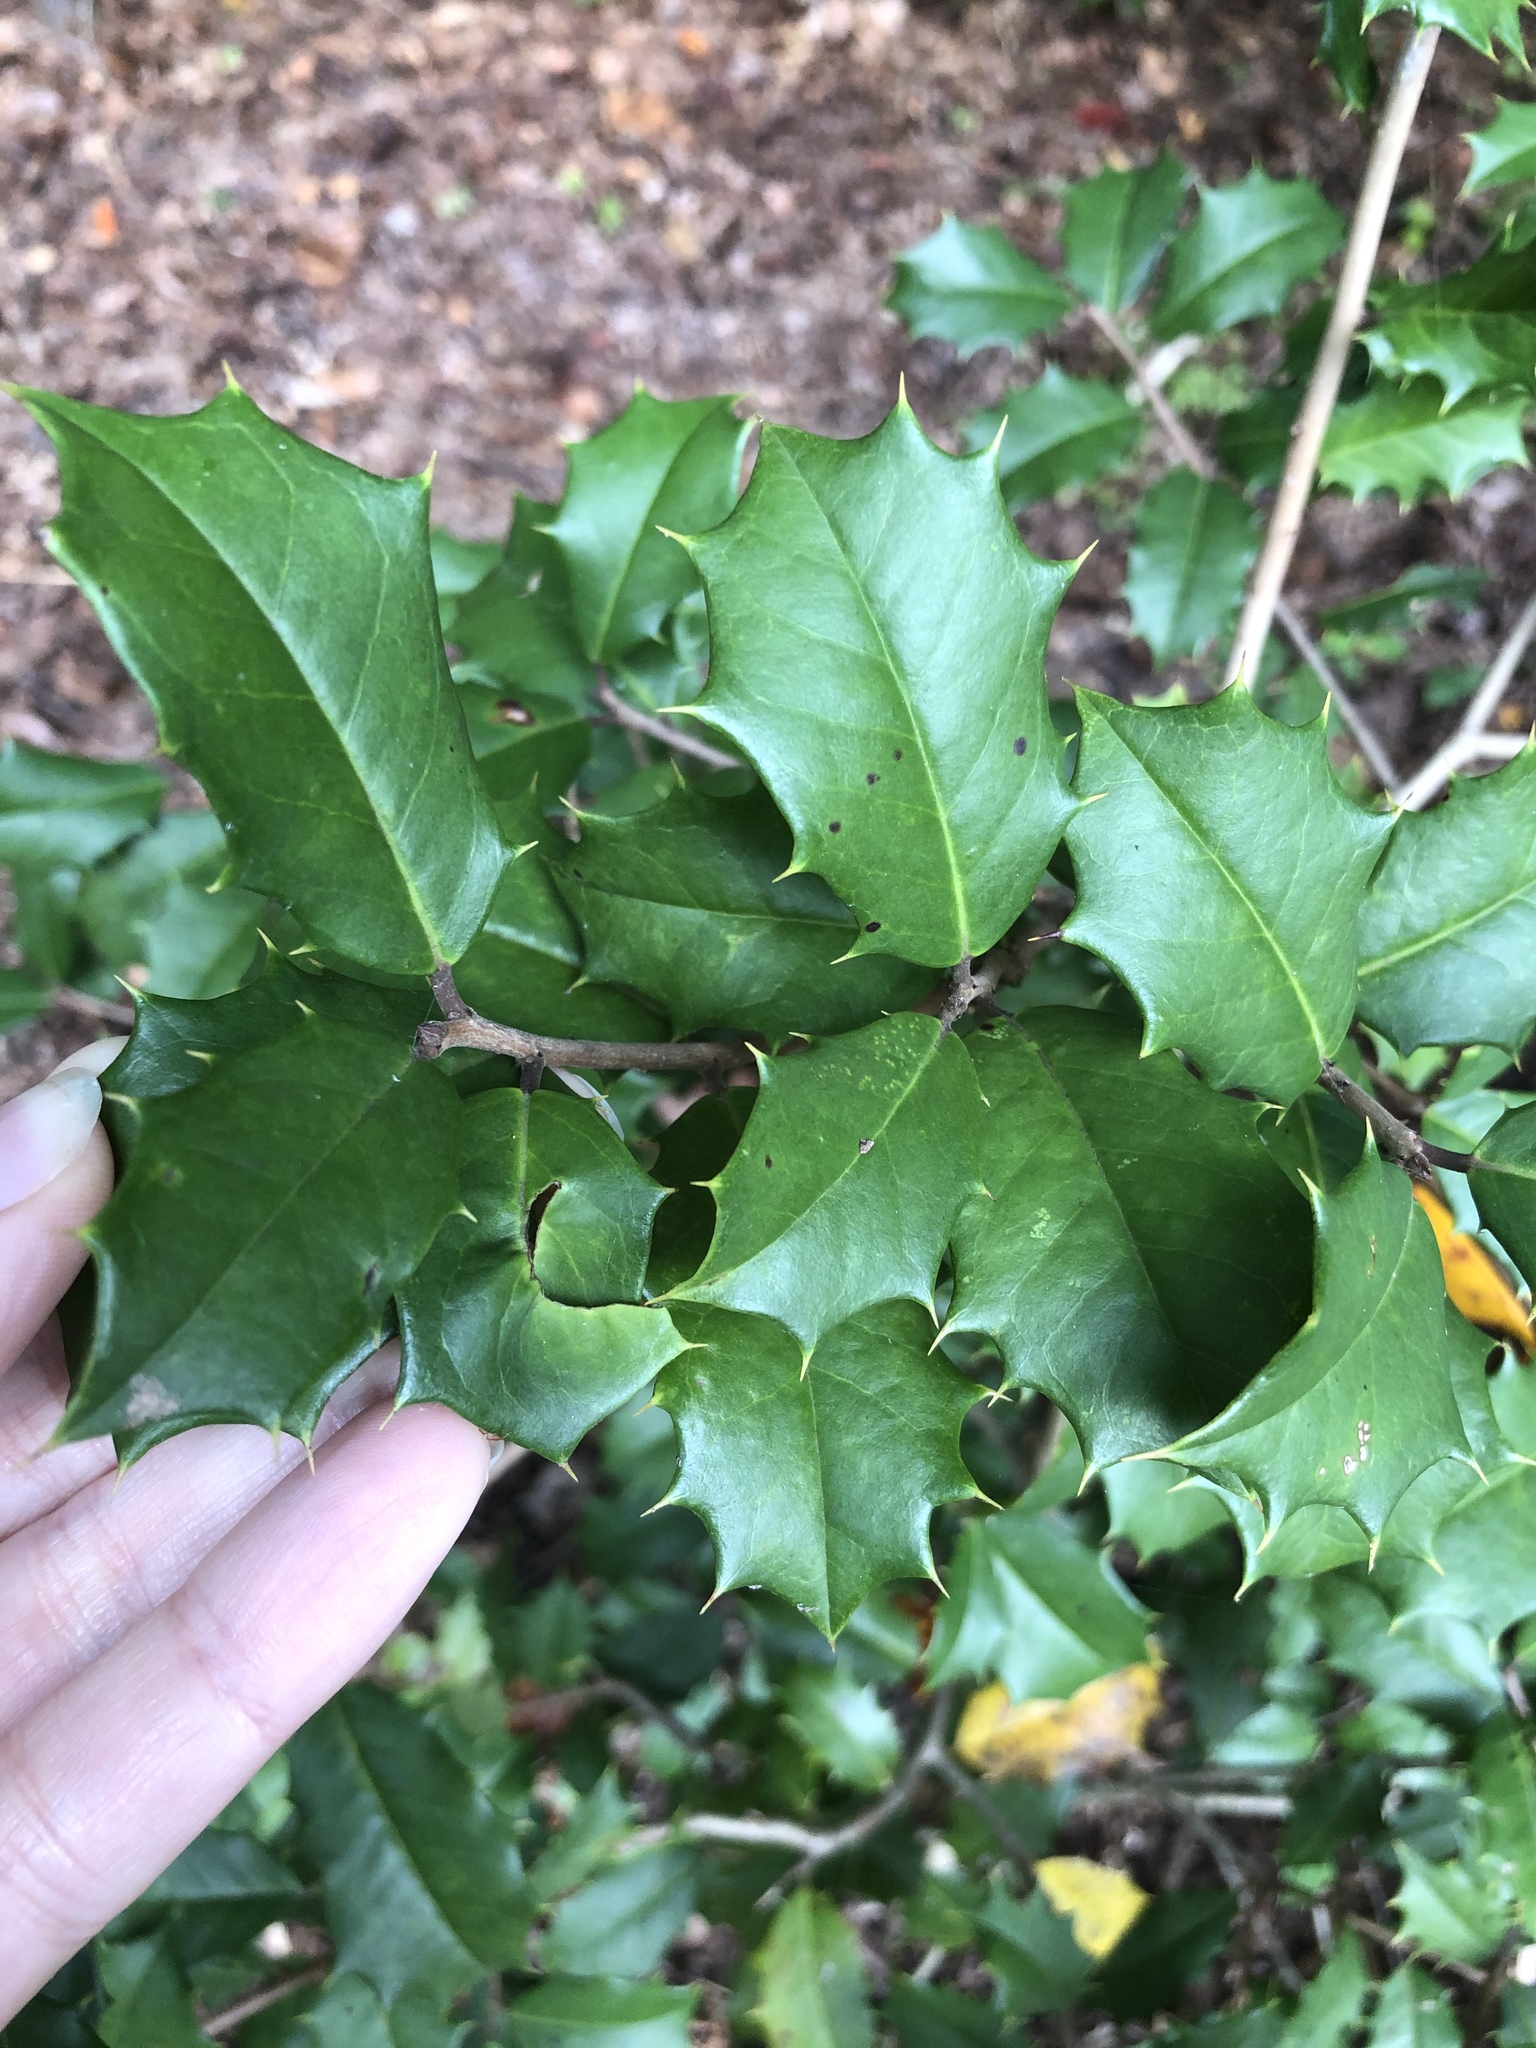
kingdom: Plantae
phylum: Tracheophyta
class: Magnoliopsida
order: Aquifoliales
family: Aquifoliaceae
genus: Ilex
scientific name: Ilex opaca
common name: American holly
